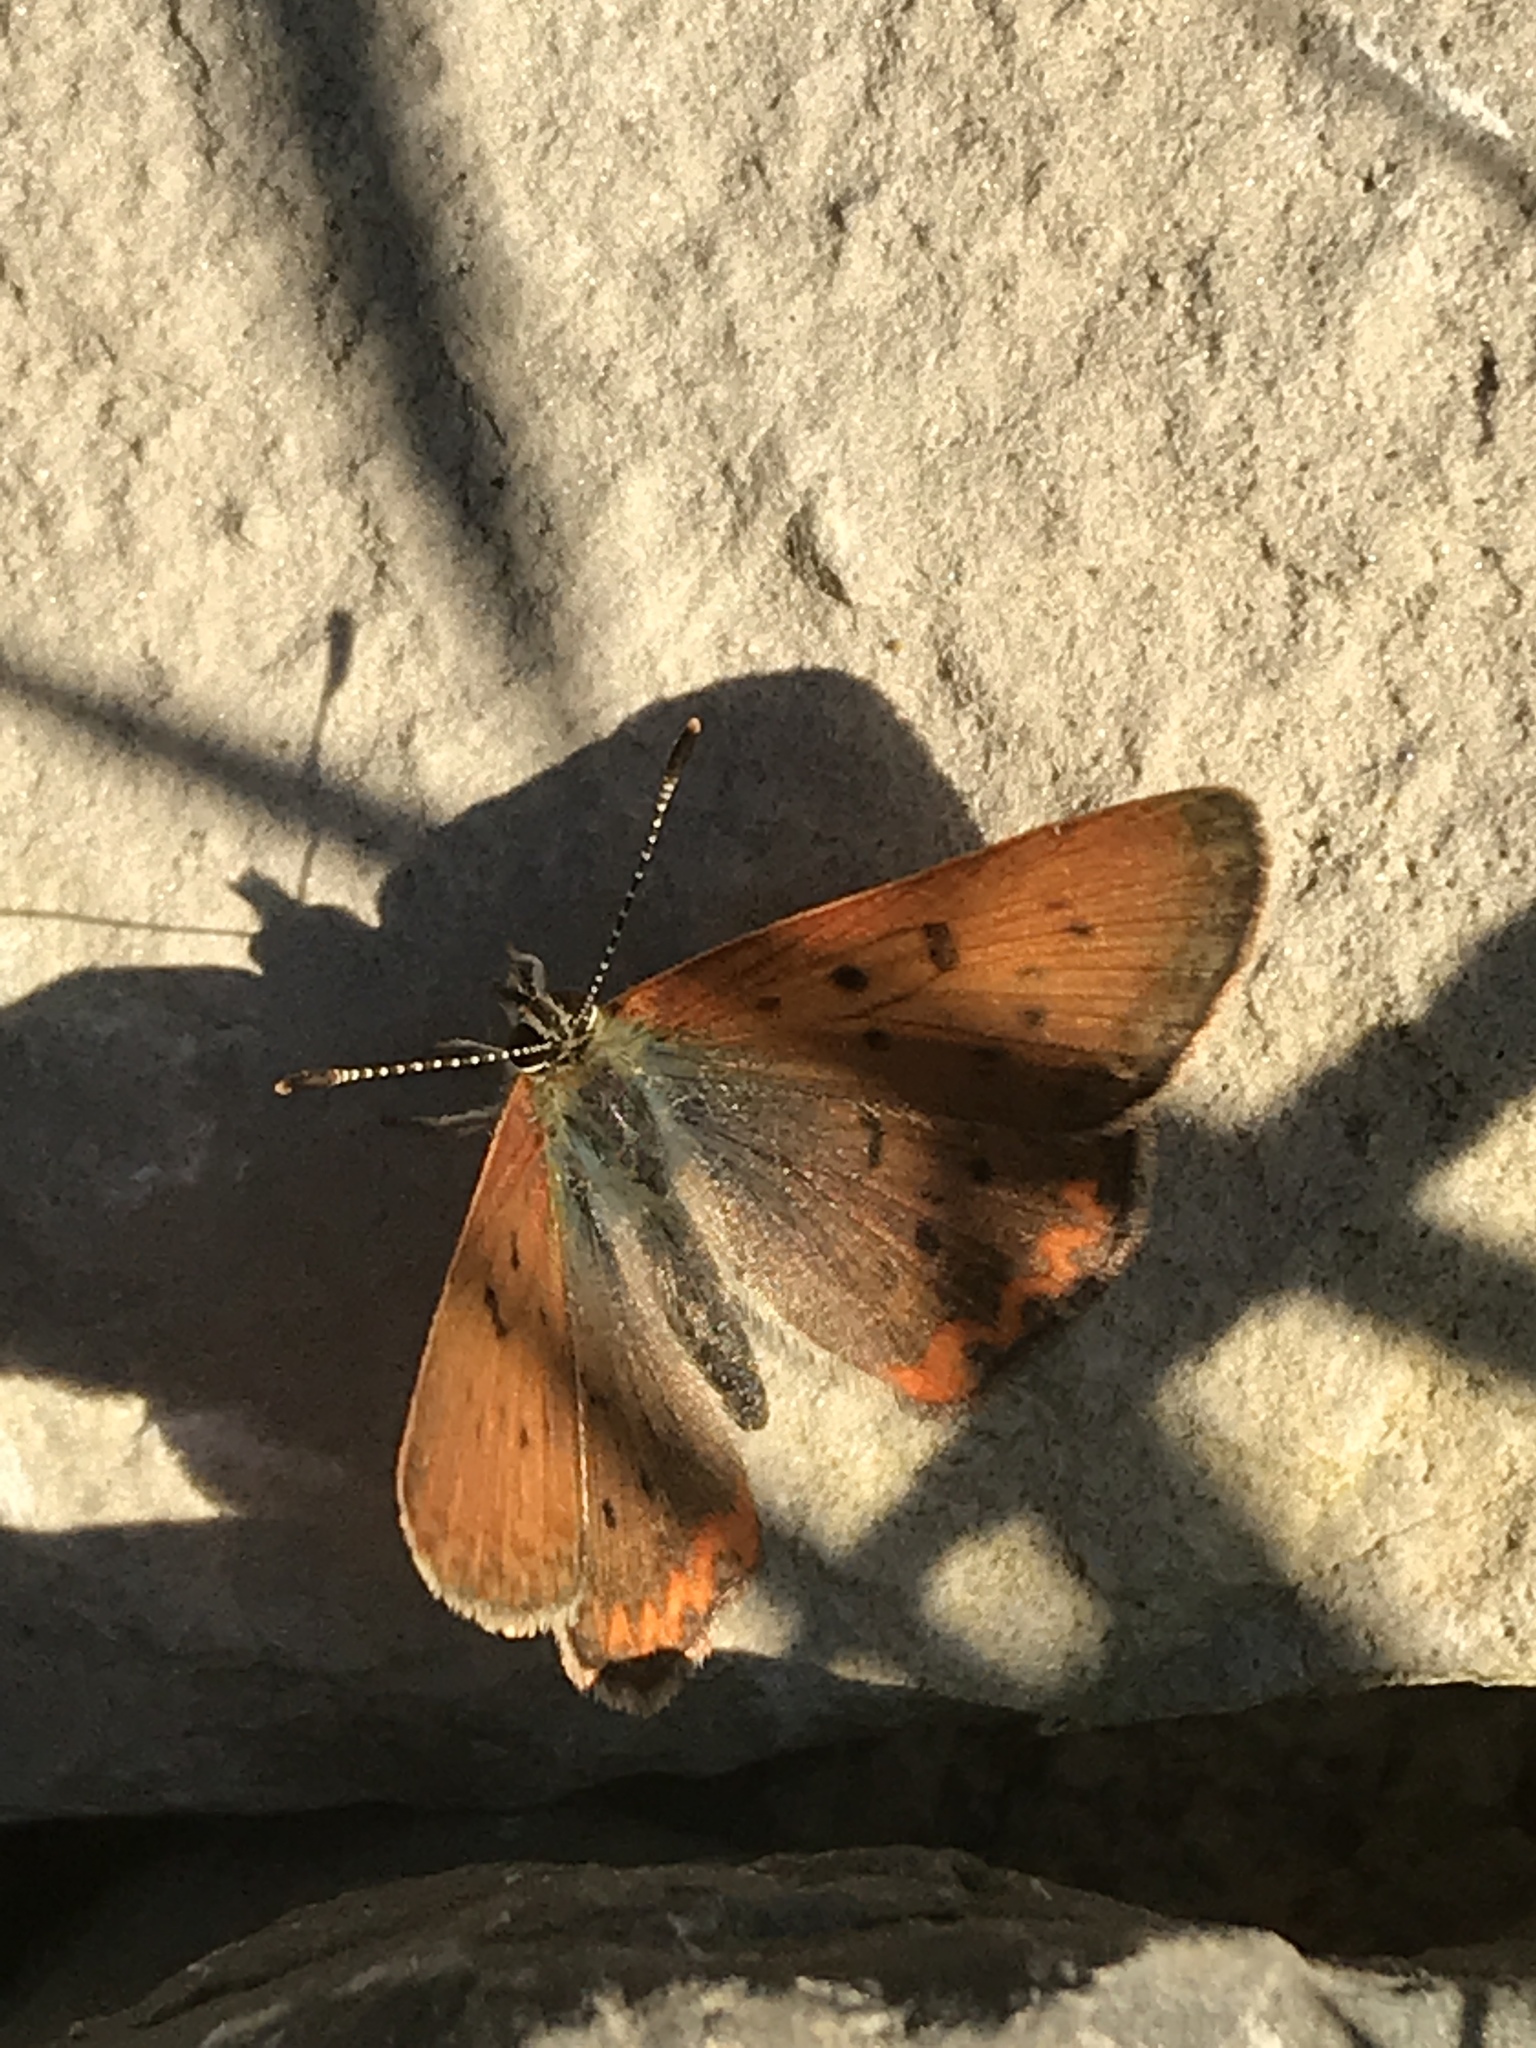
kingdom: Animalia
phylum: Arthropoda
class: Insecta
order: Lepidoptera
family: Lycaenidae
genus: Tharsalea
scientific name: Tharsalea helloides
